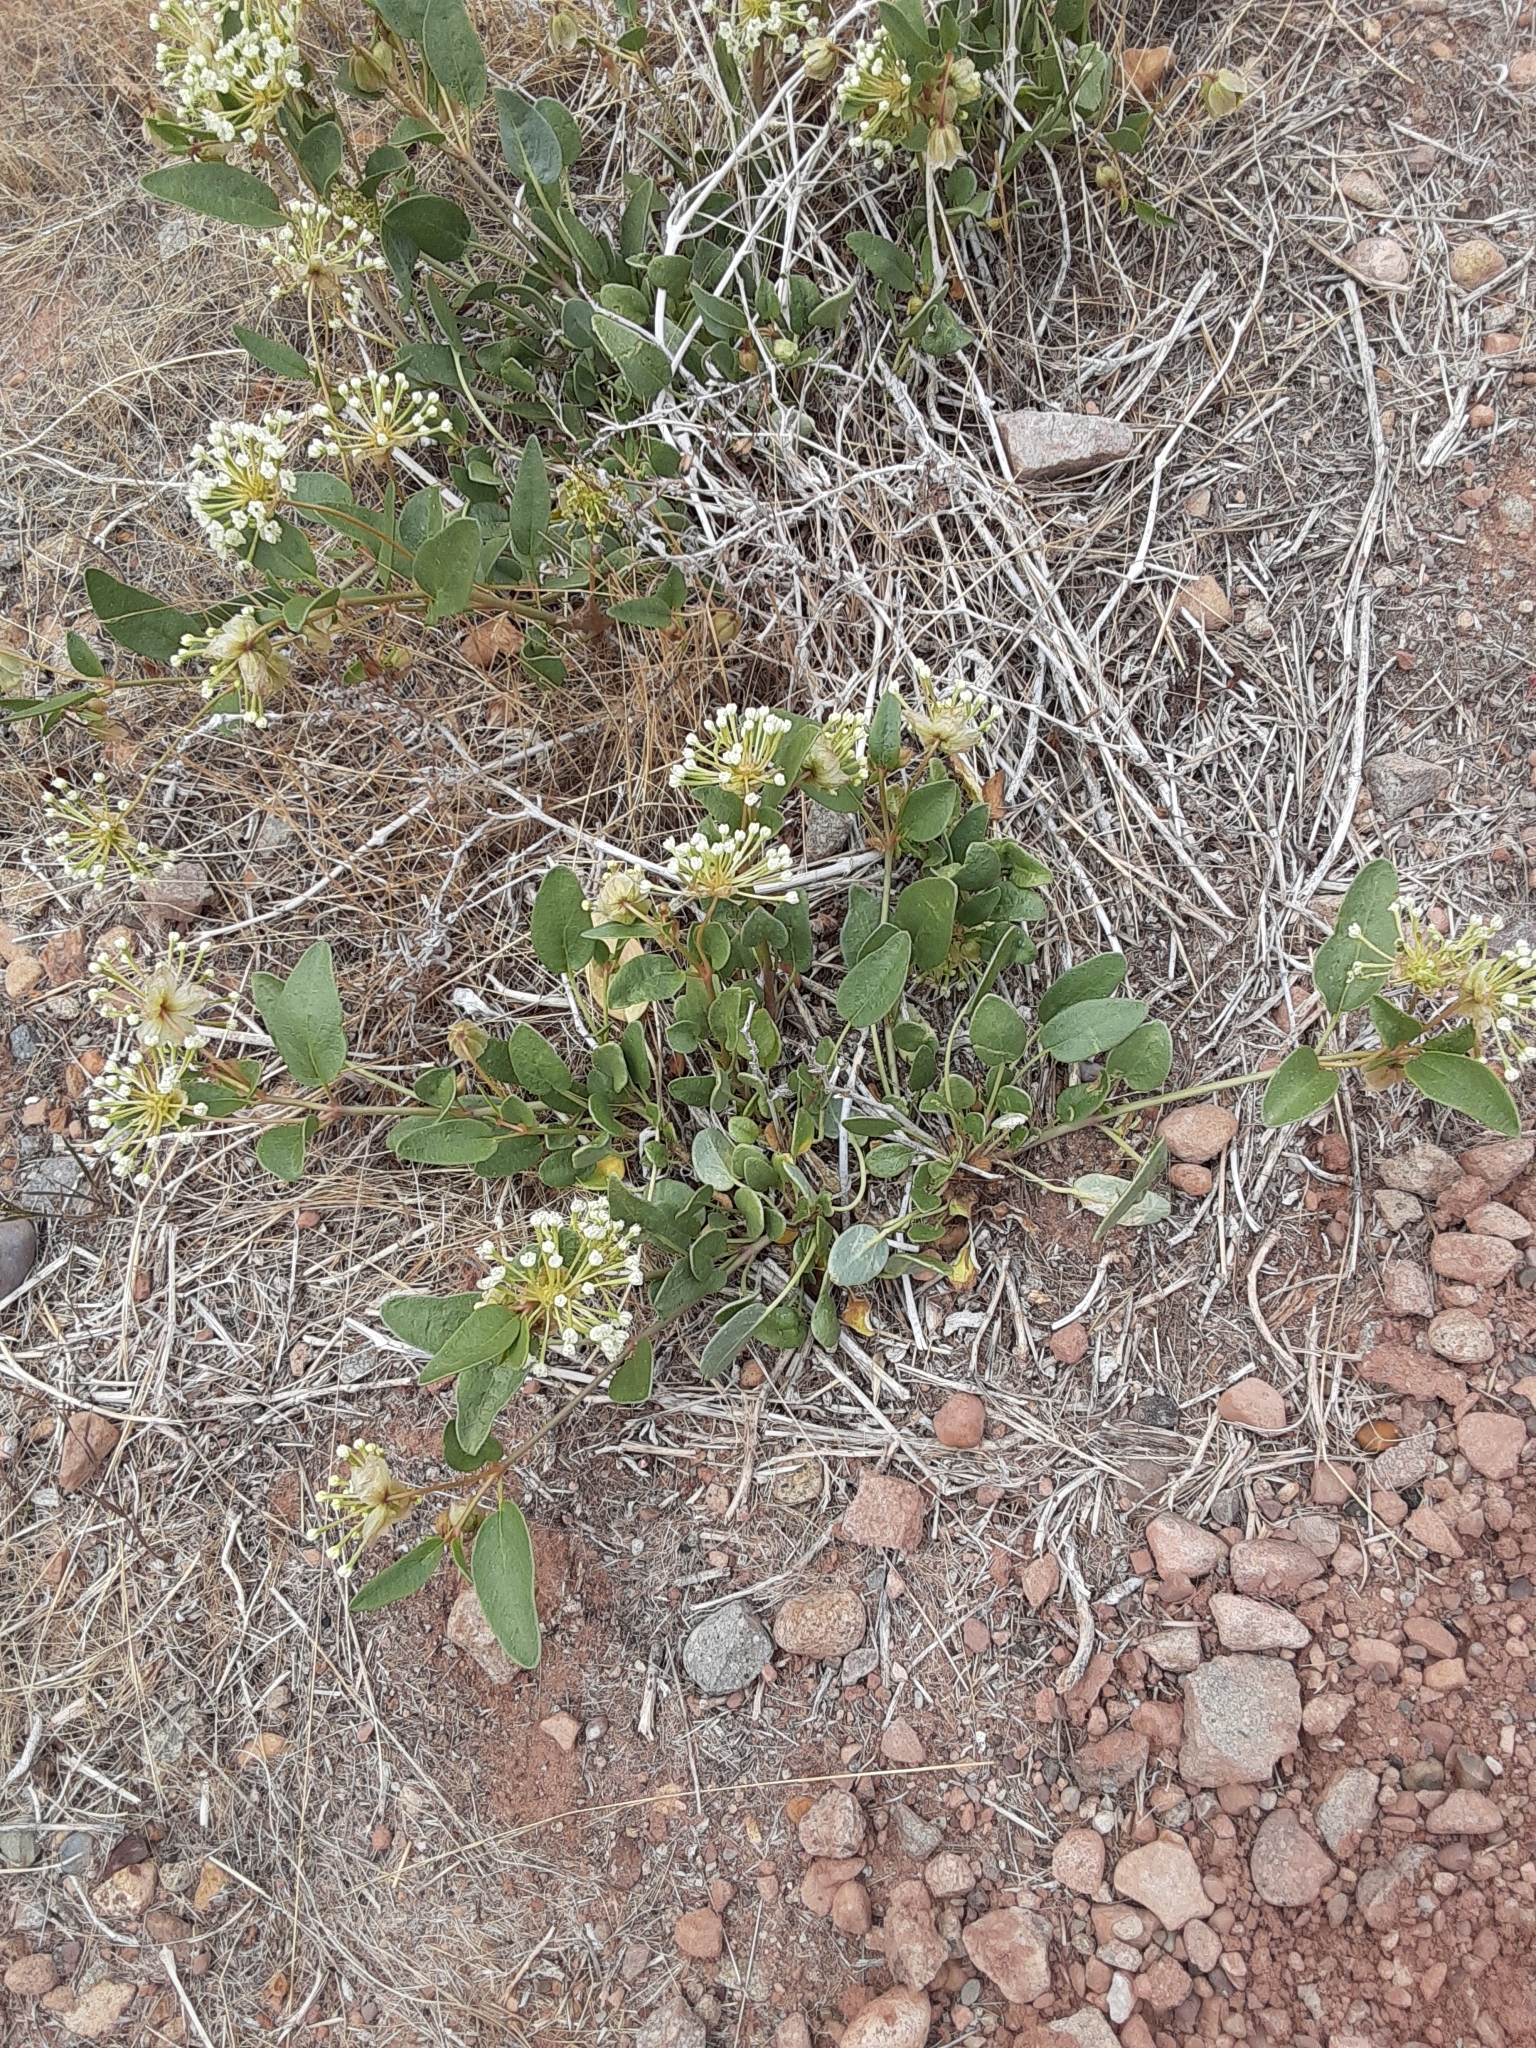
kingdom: Plantae
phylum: Tracheophyta
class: Magnoliopsida
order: Caryophyllales
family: Nyctaginaceae
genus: Abronia
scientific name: Abronia elliptica
